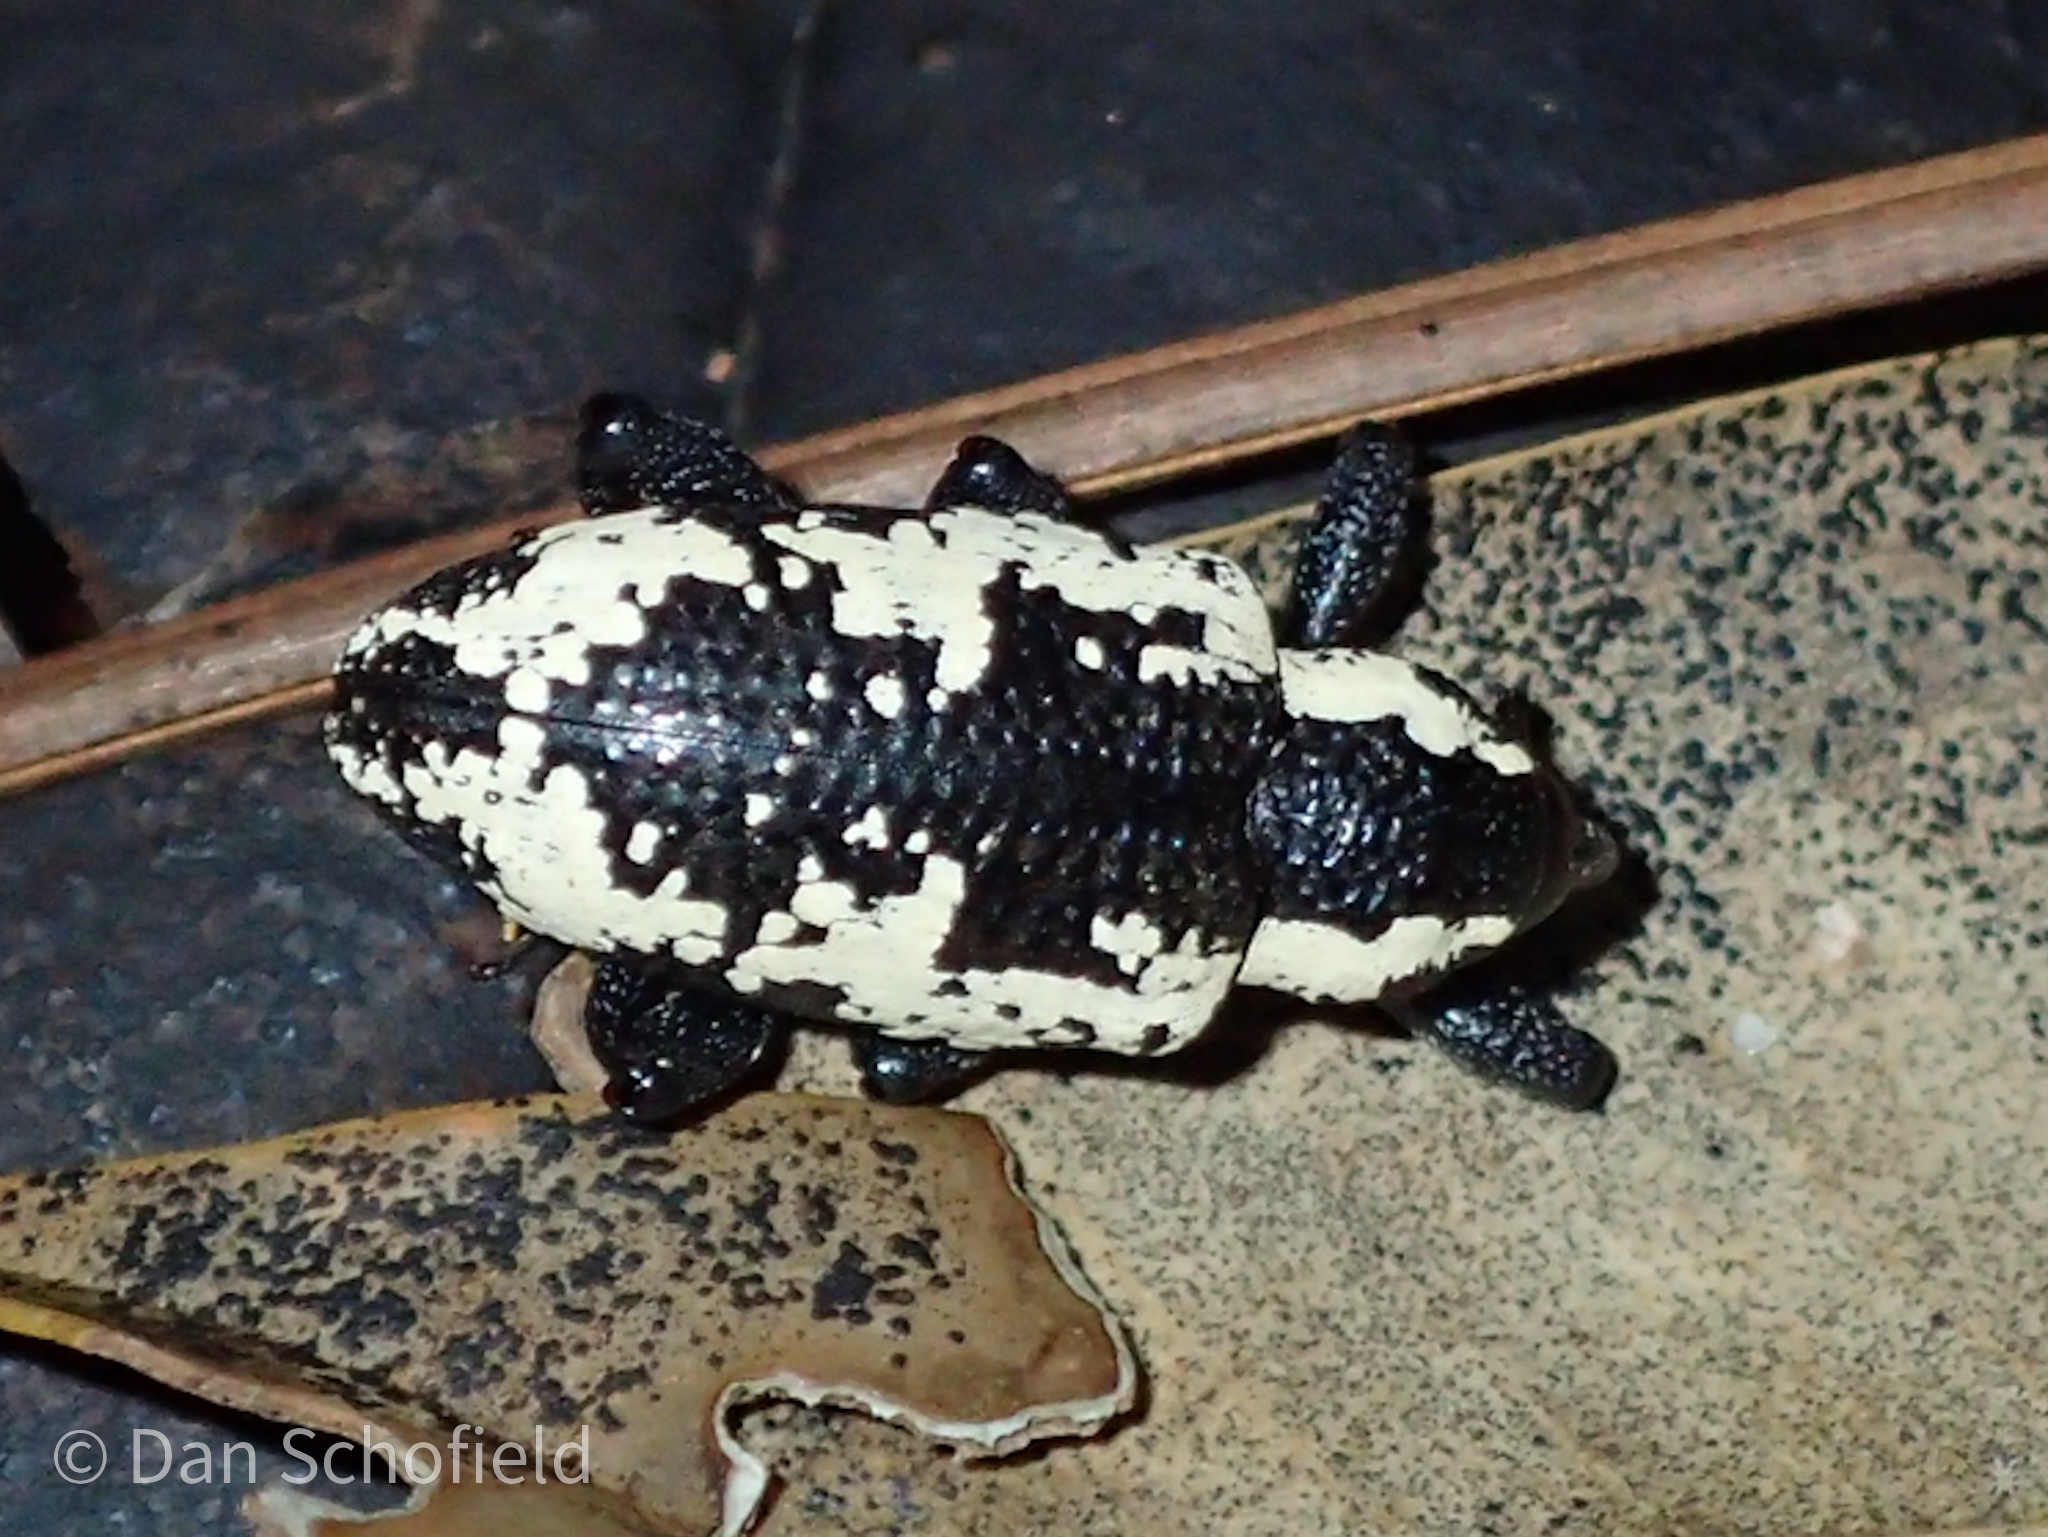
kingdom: Animalia
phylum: Arthropoda
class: Insecta
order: Coleoptera
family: Curculionidae
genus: Heilipus
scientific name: Heilipus squamosus
